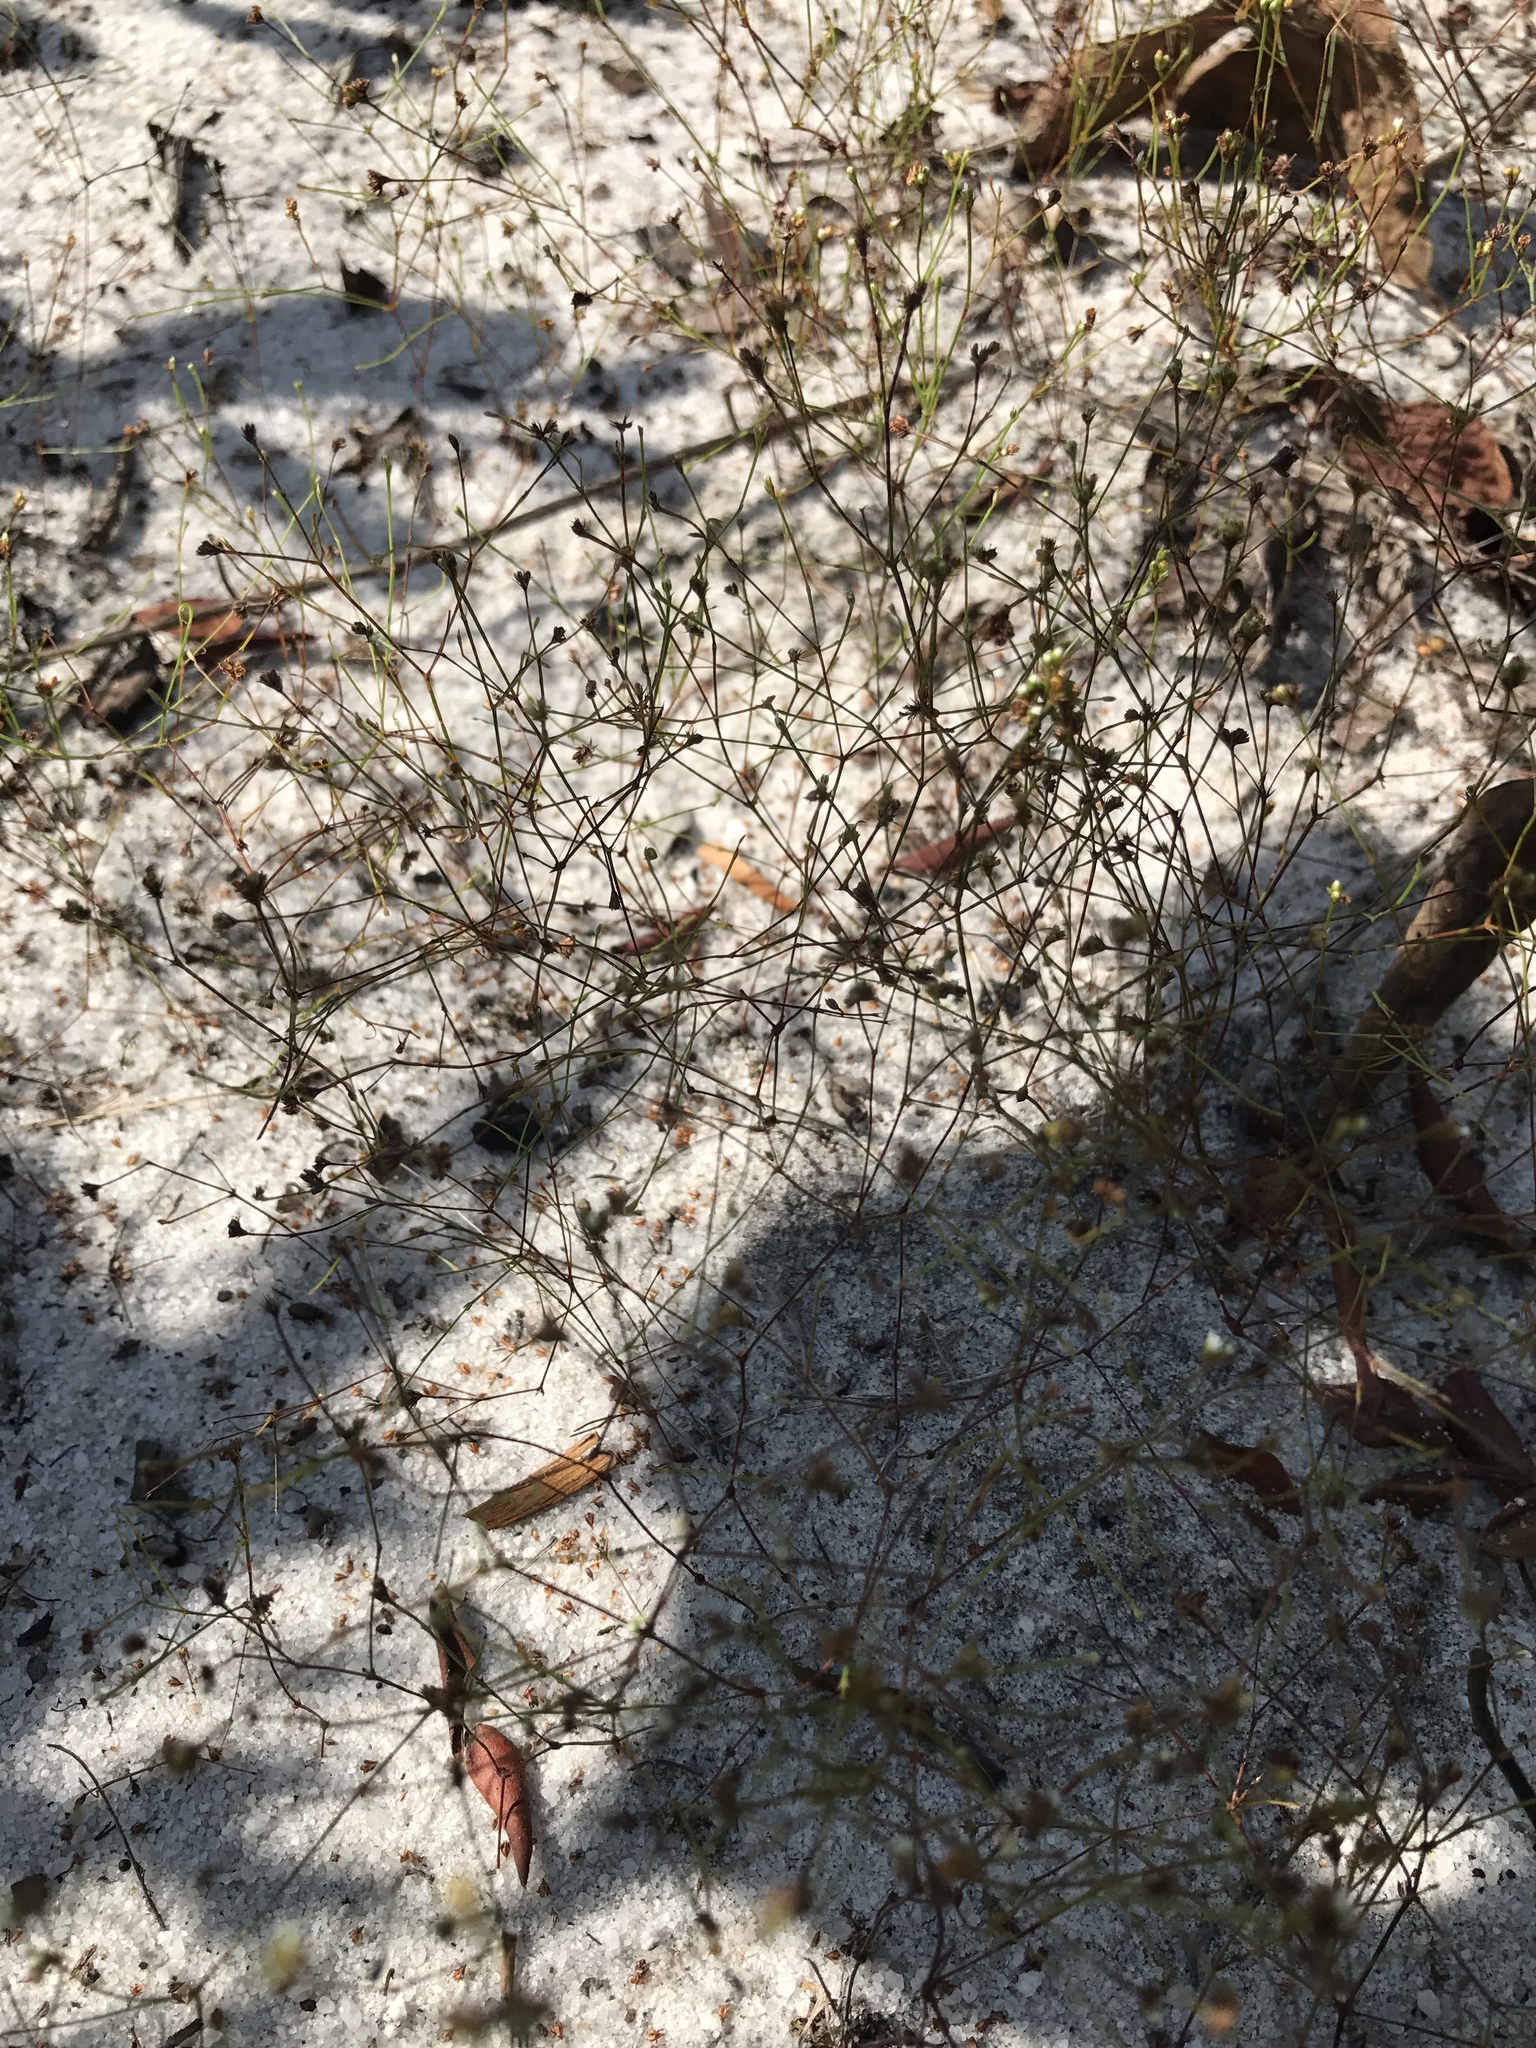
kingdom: Plantae
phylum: Tracheophyta
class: Magnoliopsida
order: Caryophyllales
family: Caryophyllaceae
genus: Stipulicida
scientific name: Stipulicida setacea
